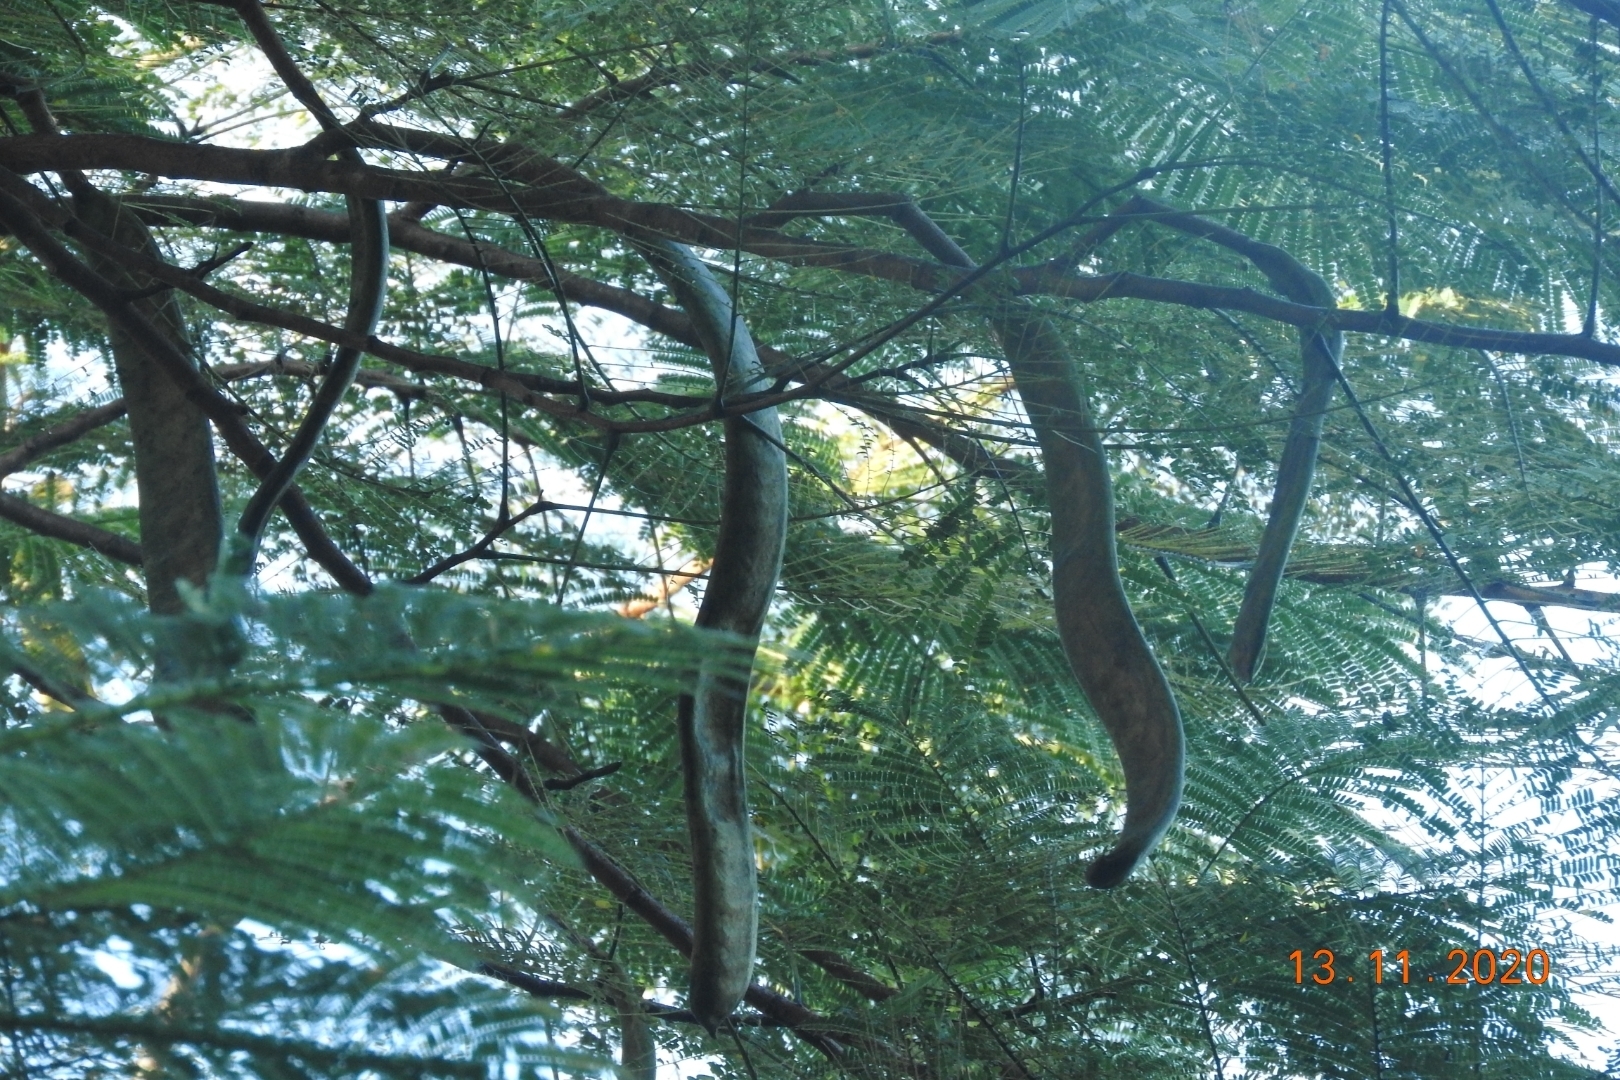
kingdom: Plantae
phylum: Tracheophyta
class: Magnoliopsida
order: Fabales
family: Fabaceae
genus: Delonix
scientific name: Delonix regia
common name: Royal poinciana
